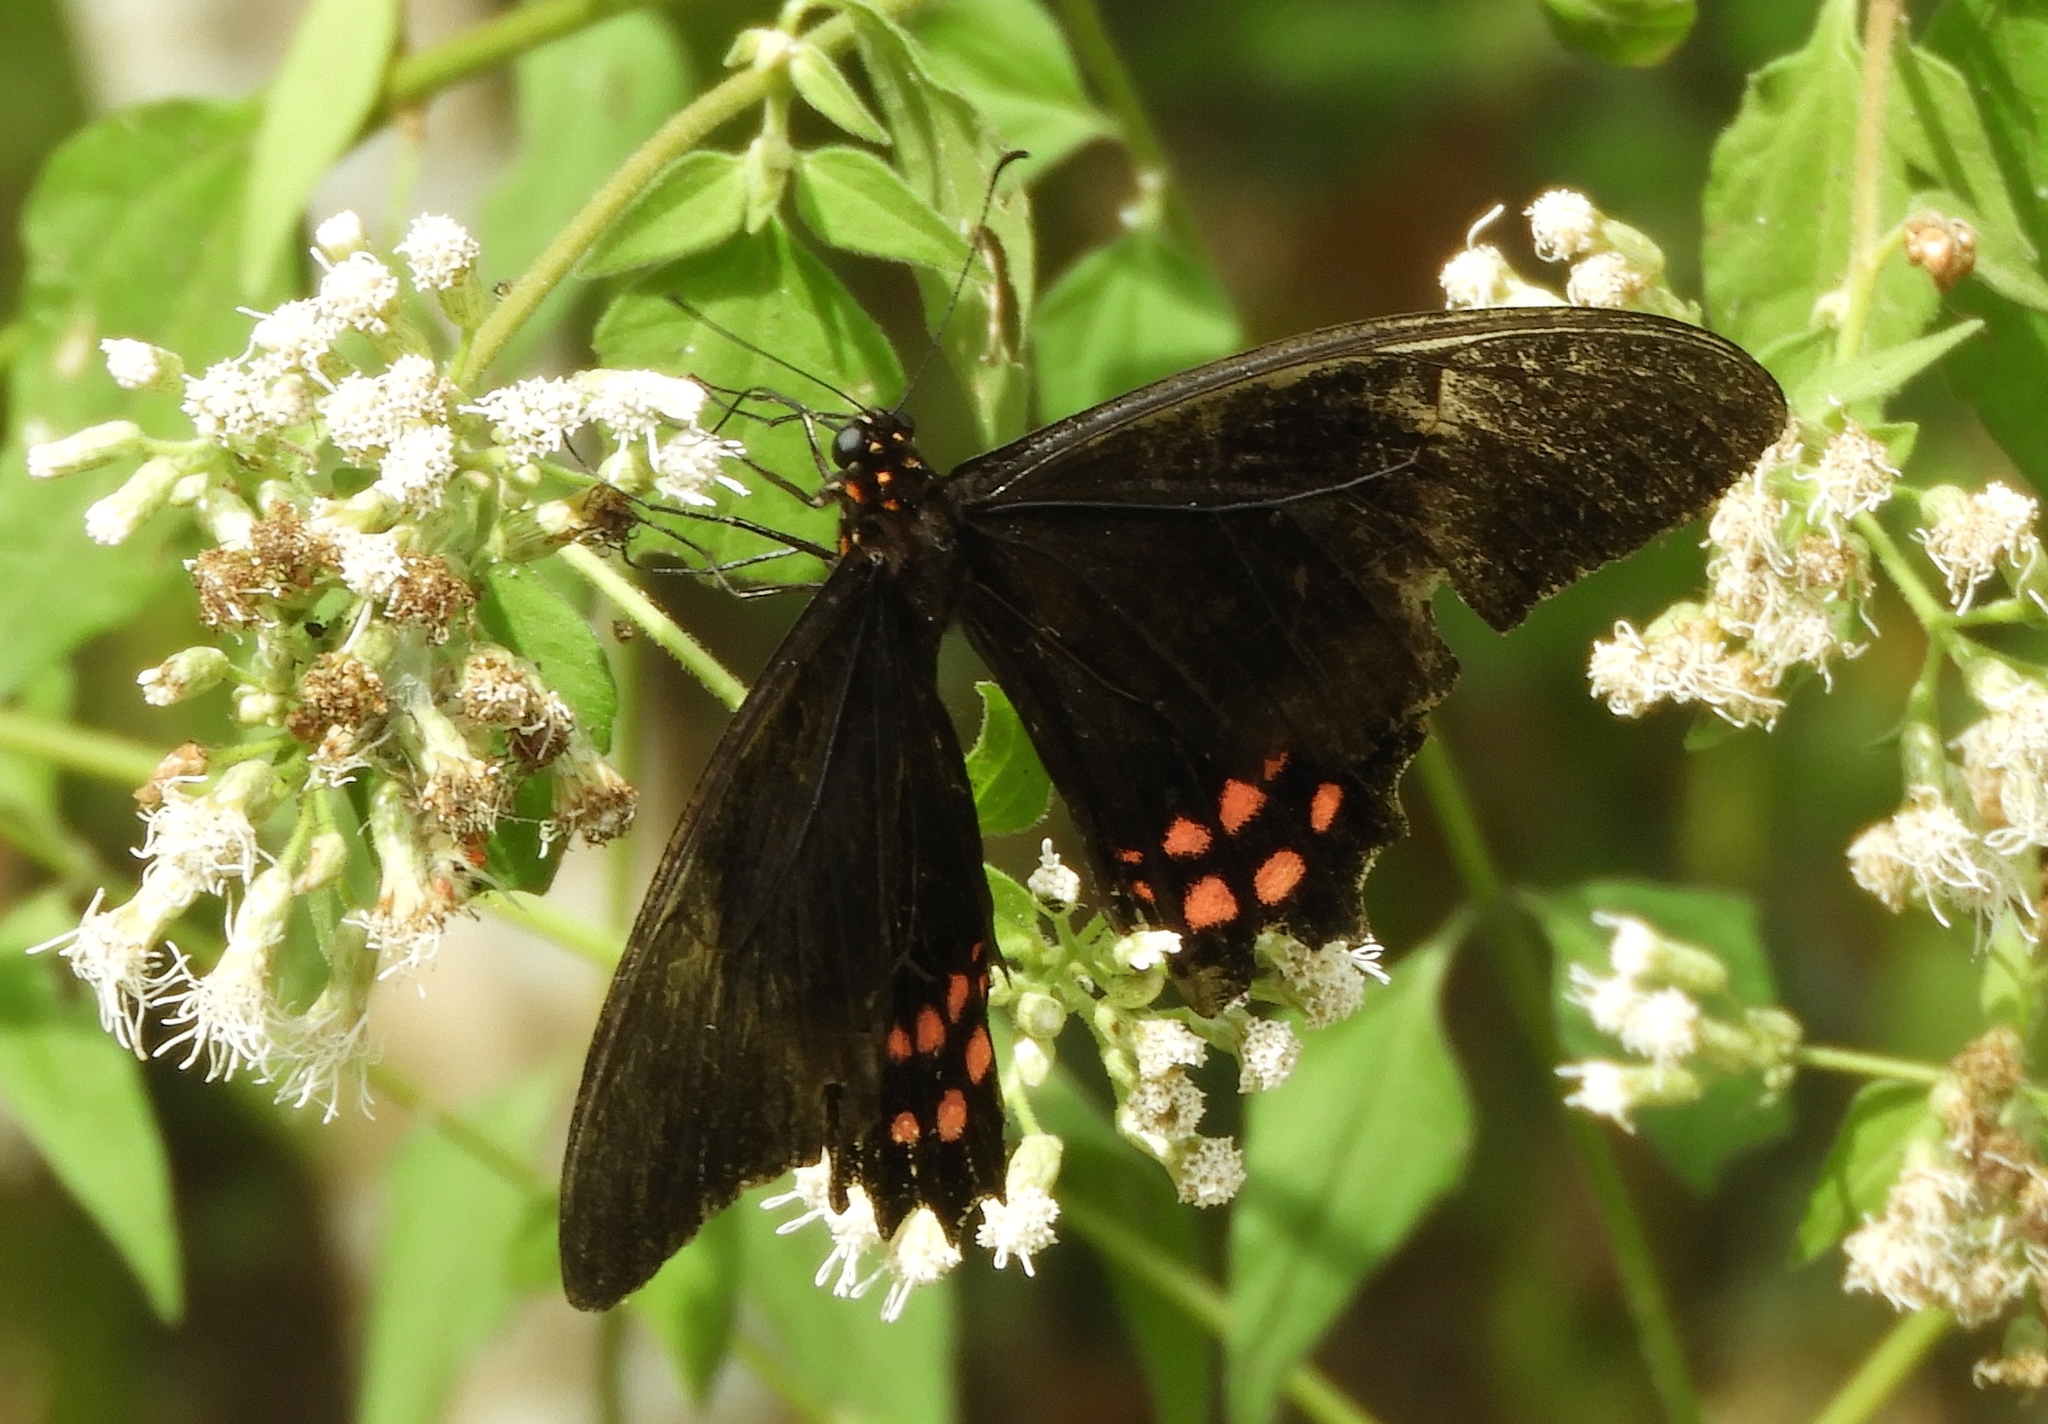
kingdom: Animalia
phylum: Arthropoda
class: Insecta
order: Lepidoptera
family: Papilionidae
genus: Heraclides
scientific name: Heraclides rogeri
